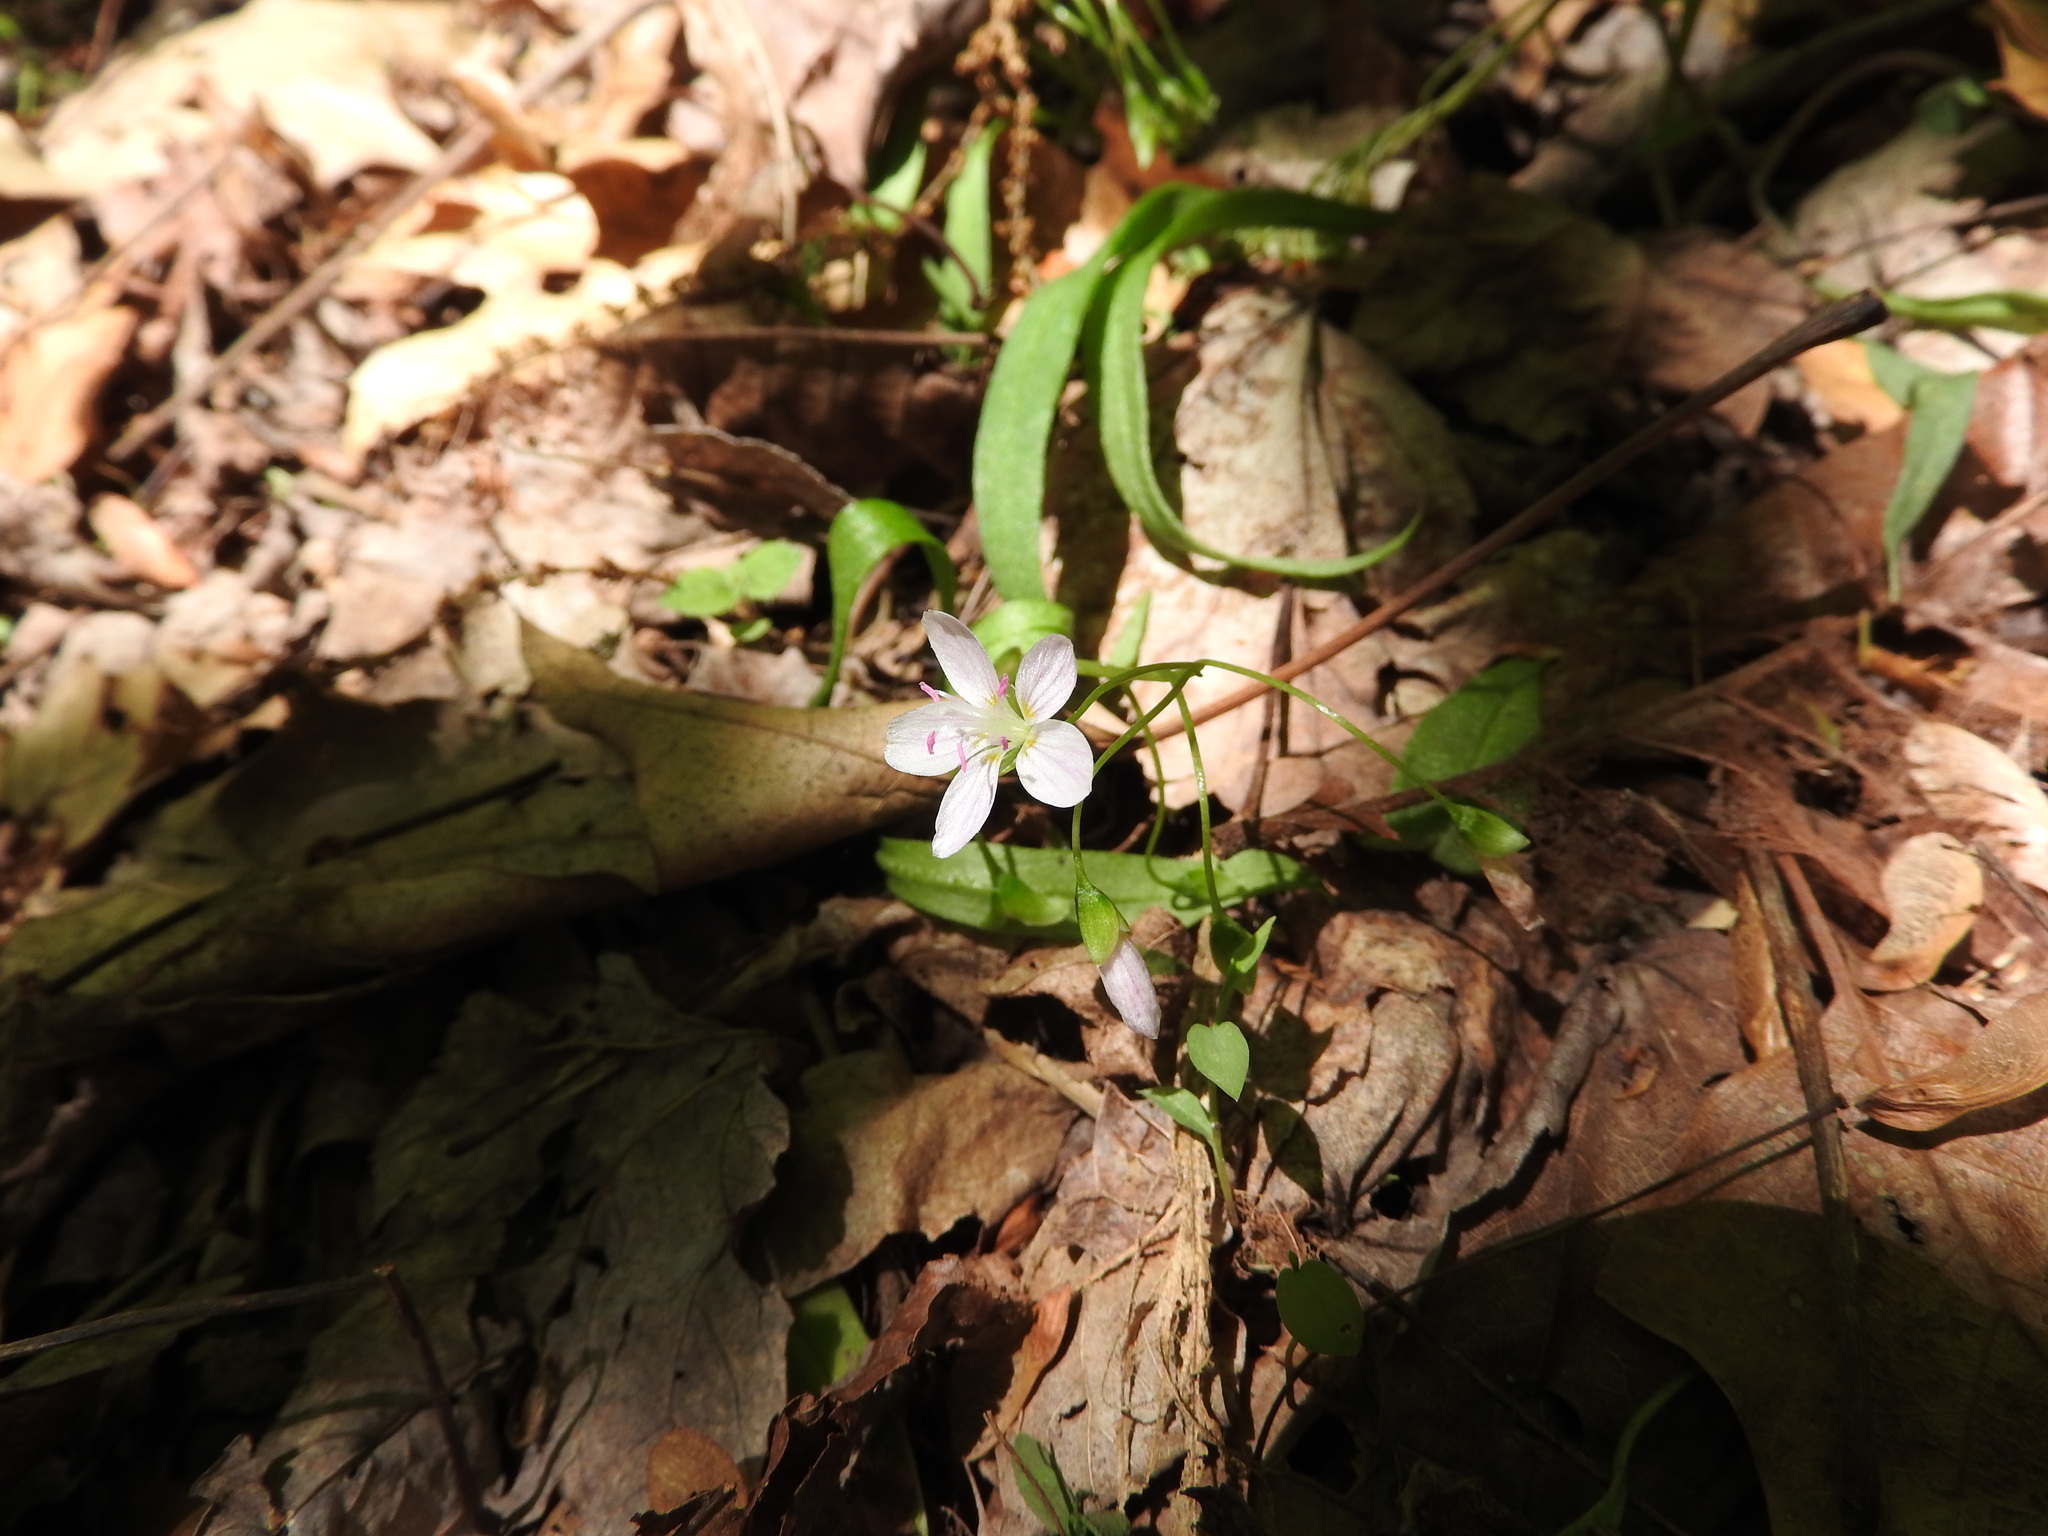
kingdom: Plantae
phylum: Tracheophyta
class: Magnoliopsida
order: Caryophyllales
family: Montiaceae
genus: Claytonia
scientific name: Claytonia virginica
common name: Virginia springbeauty
